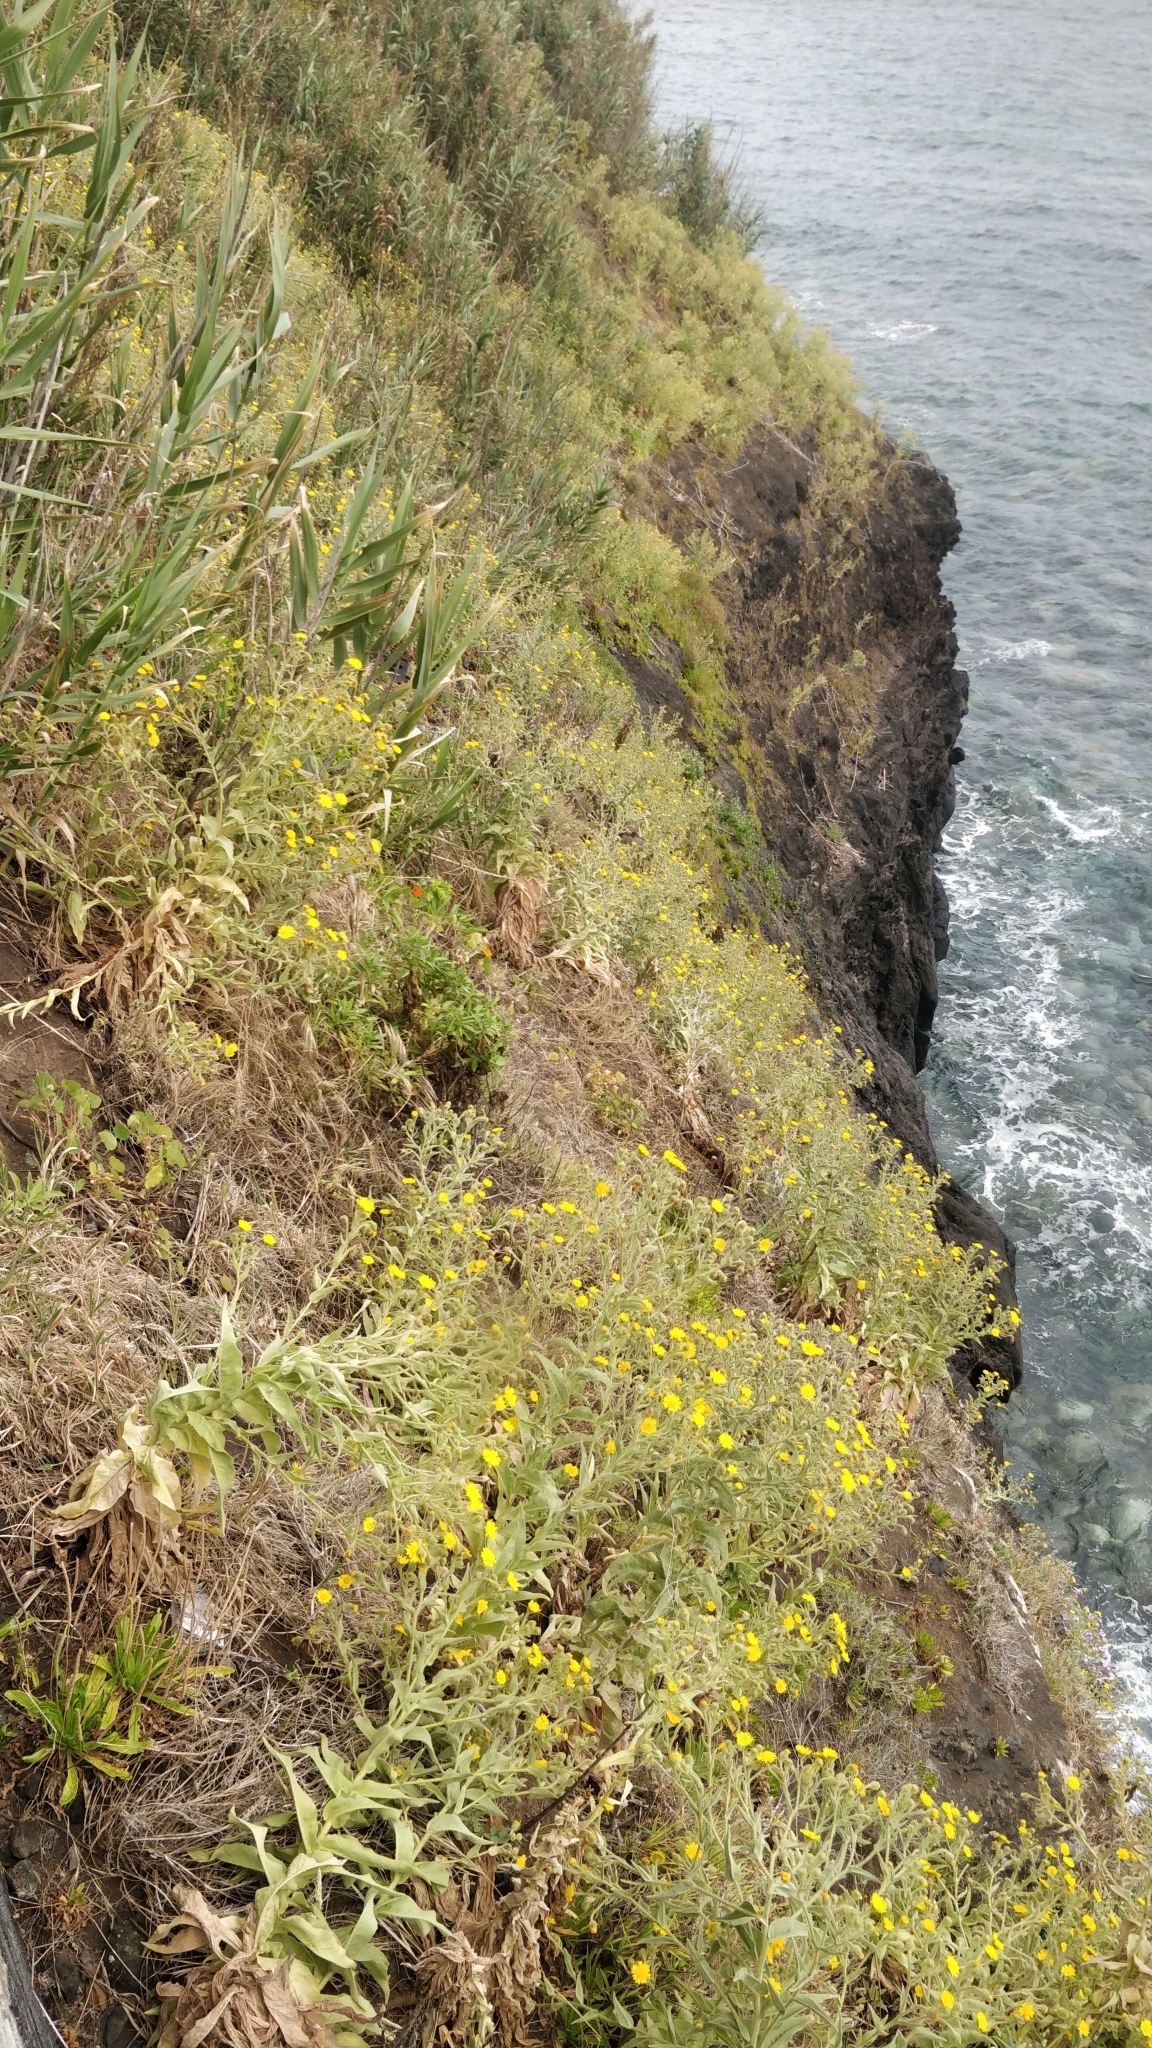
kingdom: Plantae
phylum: Tracheophyta
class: Magnoliopsida
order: Asterales
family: Asteraceae
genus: Andryala
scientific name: Andryala glandulosa
